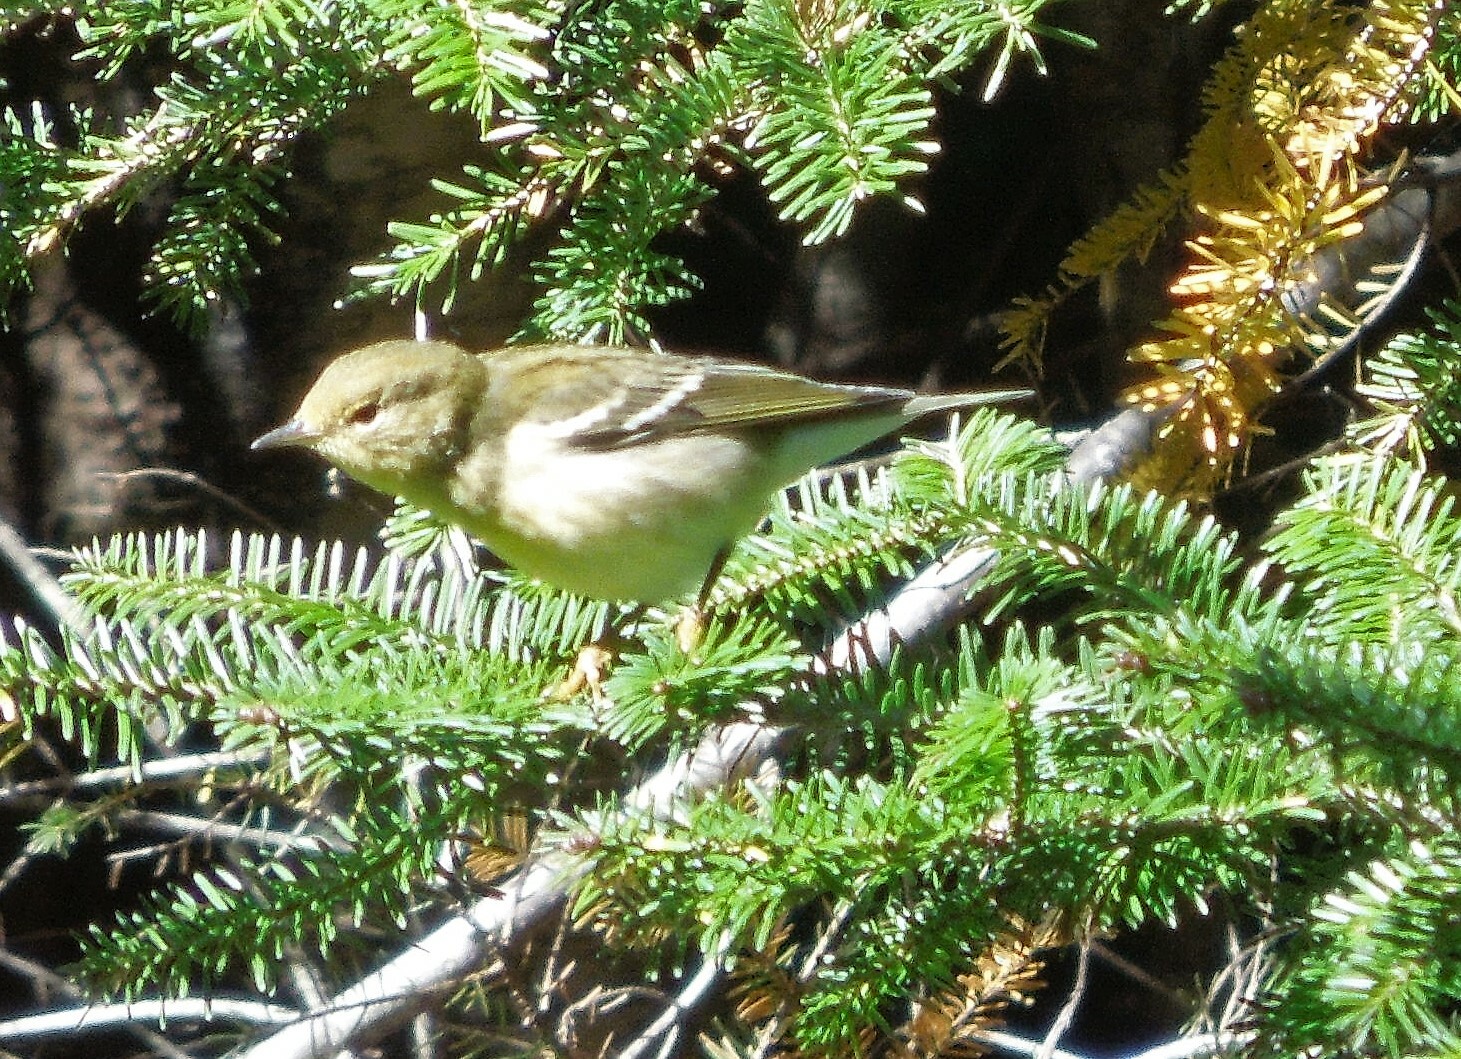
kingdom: Animalia
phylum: Chordata
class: Aves
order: Passeriformes
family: Parulidae
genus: Setophaga
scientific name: Setophaga striata
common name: Blackpoll warbler
